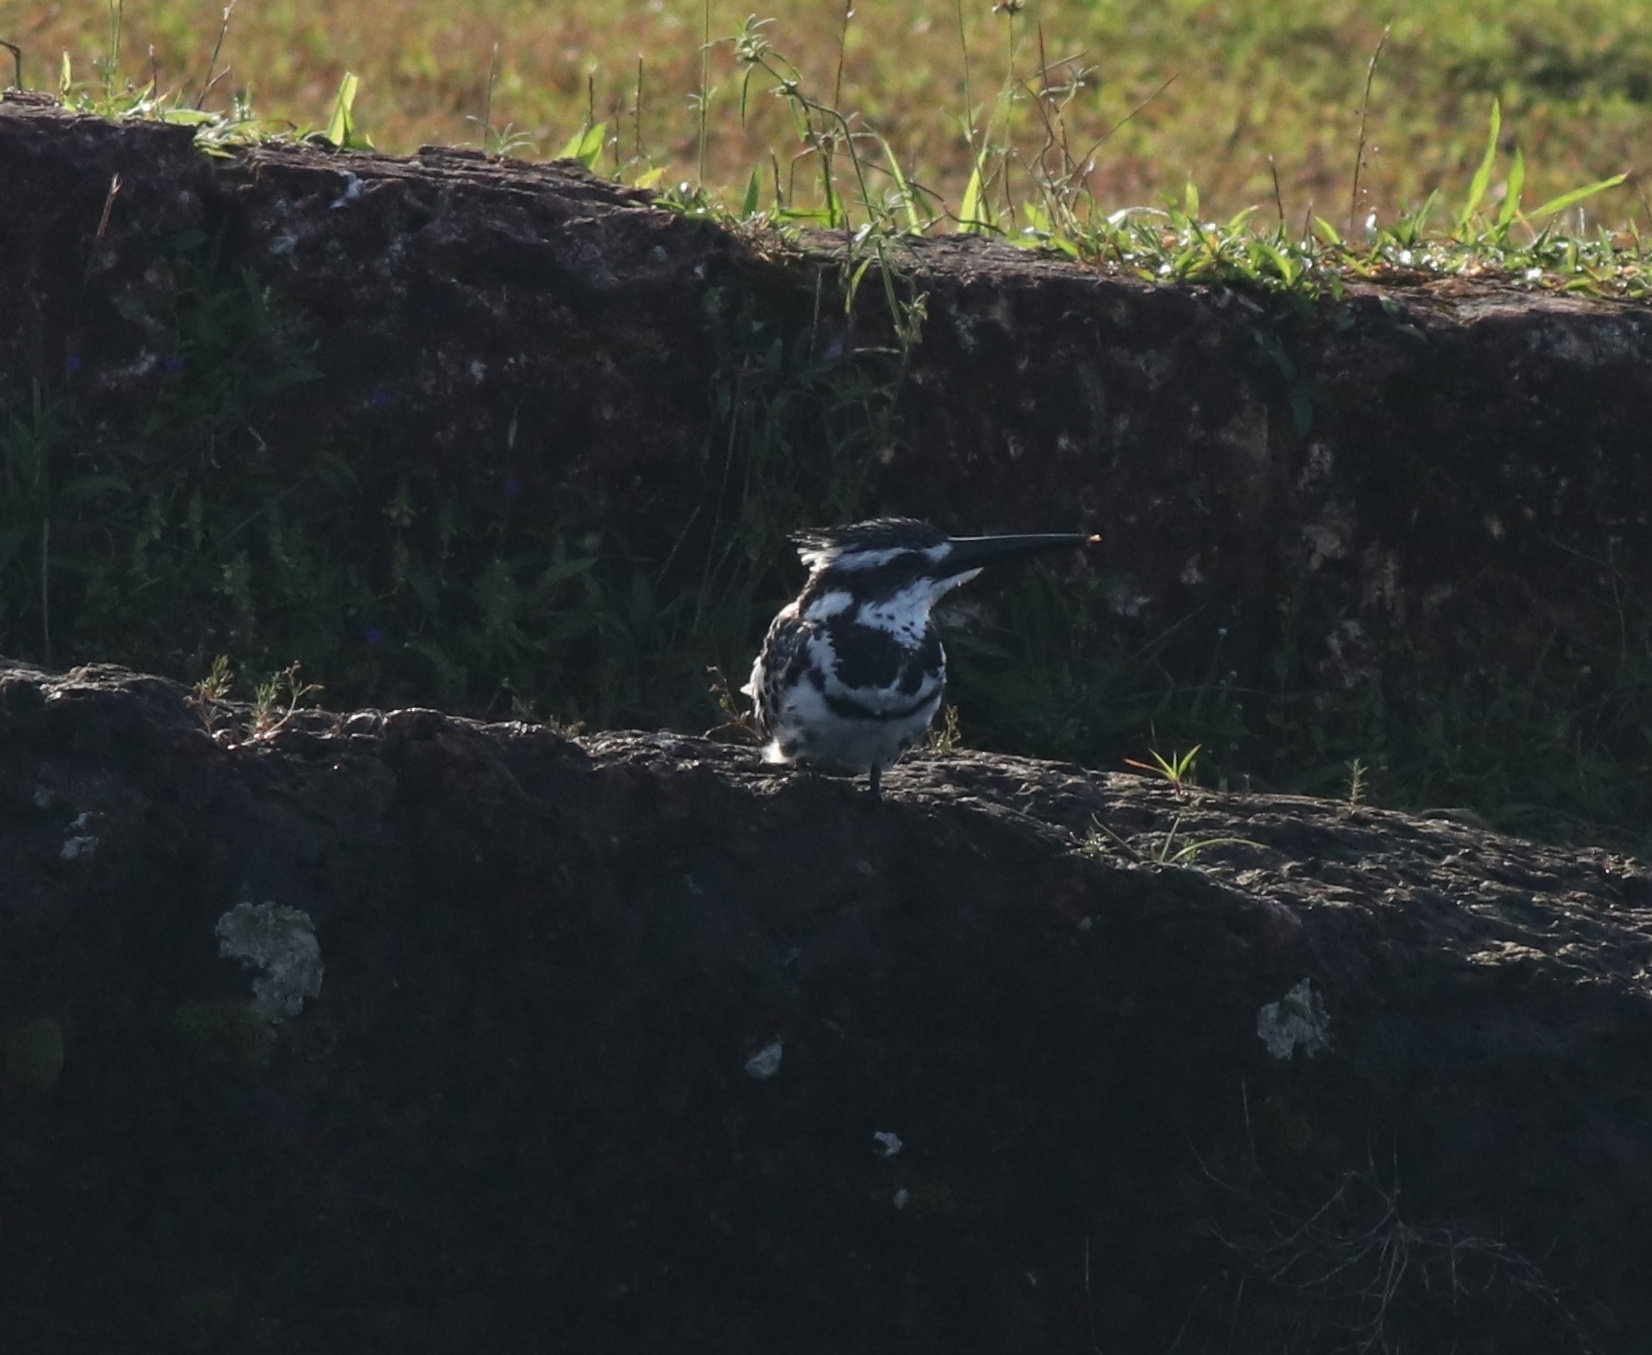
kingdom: Animalia
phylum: Chordata
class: Aves
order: Coraciiformes
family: Alcedinidae
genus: Ceryle
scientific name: Ceryle rudis
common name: Pied kingfisher
